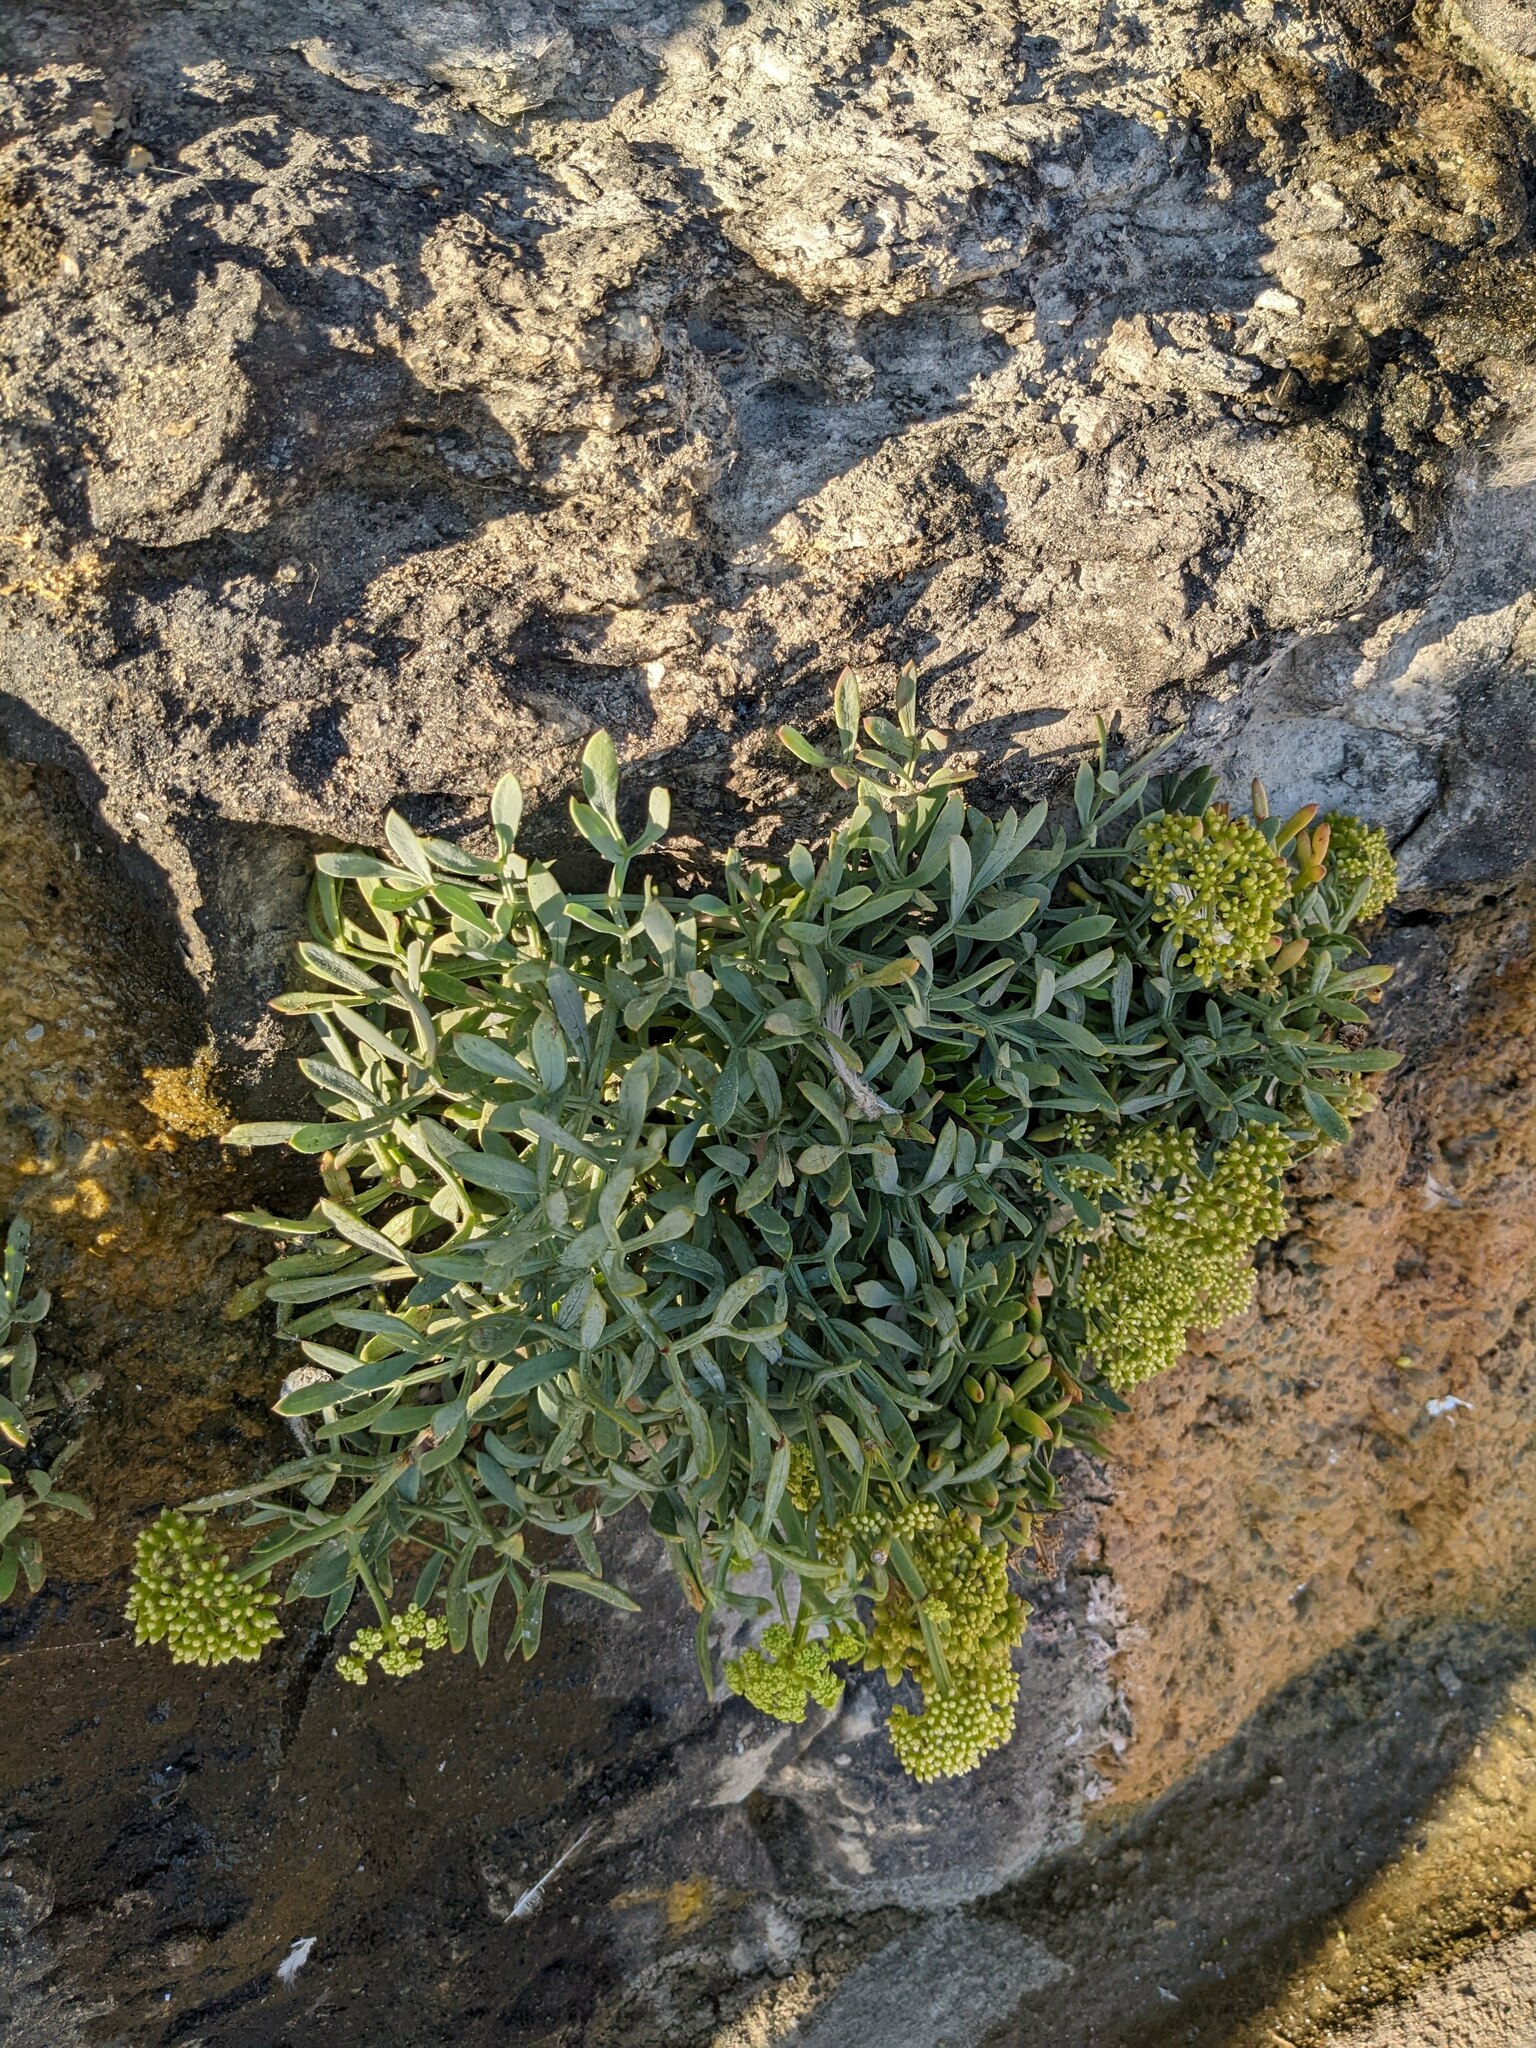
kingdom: Plantae
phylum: Tracheophyta
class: Magnoliopsida
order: Apiales
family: Apiaceae
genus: Crithmum
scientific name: Crithmum maritimum
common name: Rock samphire
